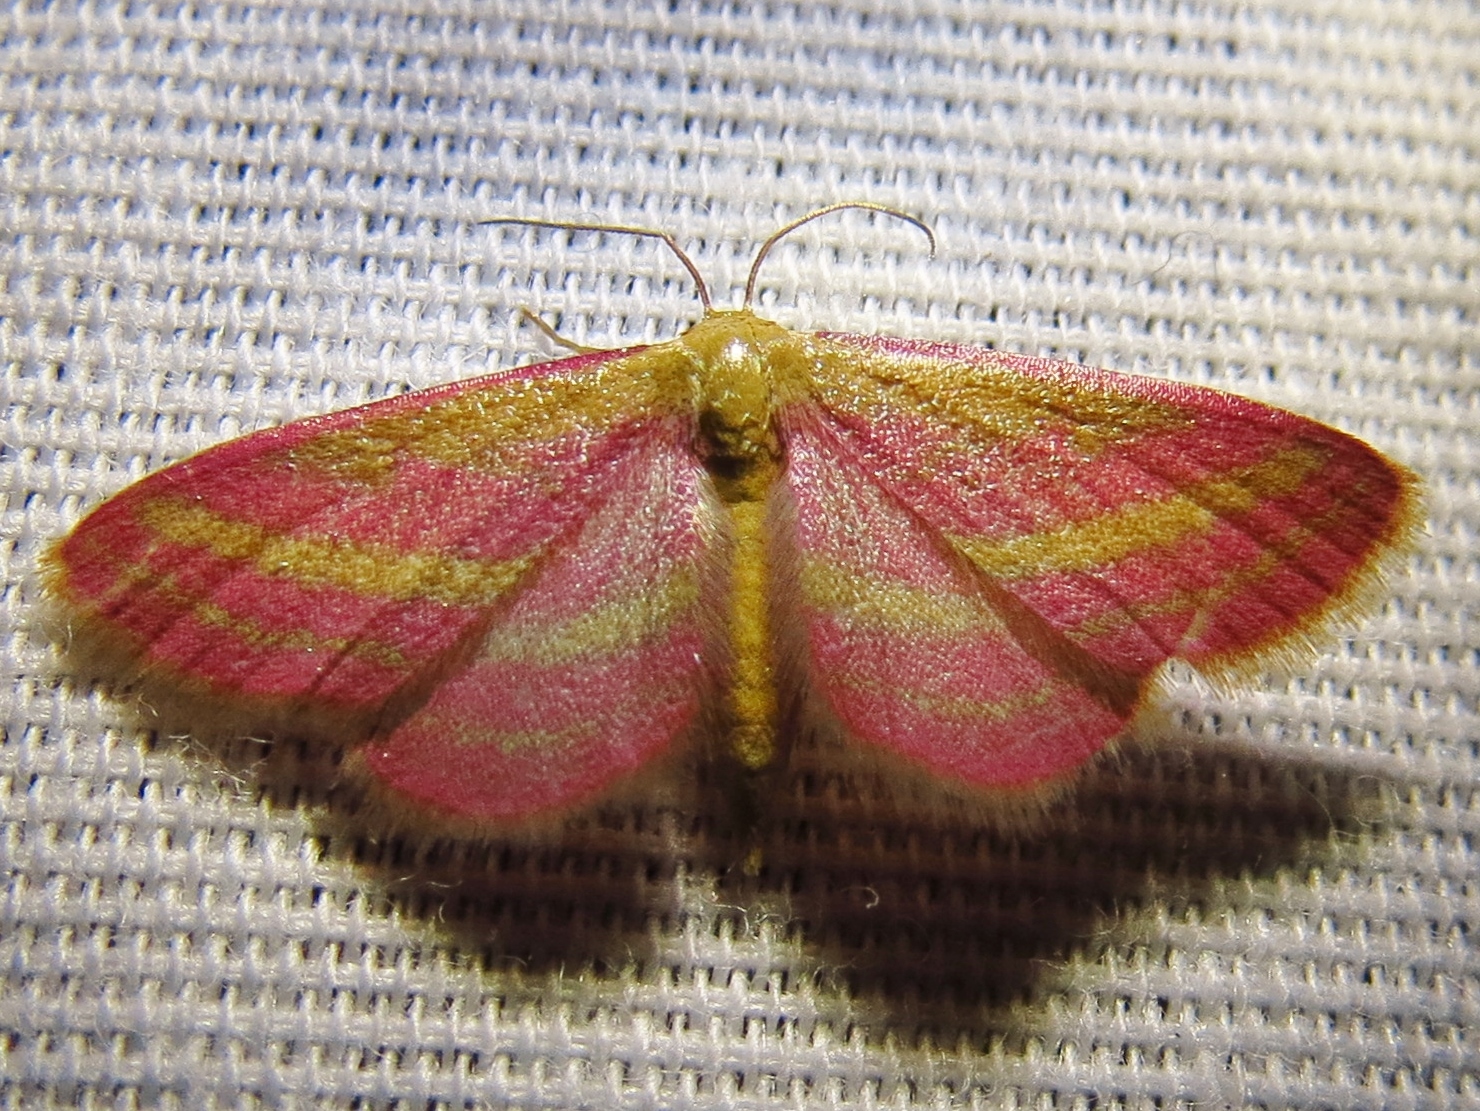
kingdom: Animalia
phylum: Arthropoda
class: Insecta
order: Lepidoptera
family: Geometridae
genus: Leptostales
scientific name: Leptostales laevitaria
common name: Raspberry wave moth
